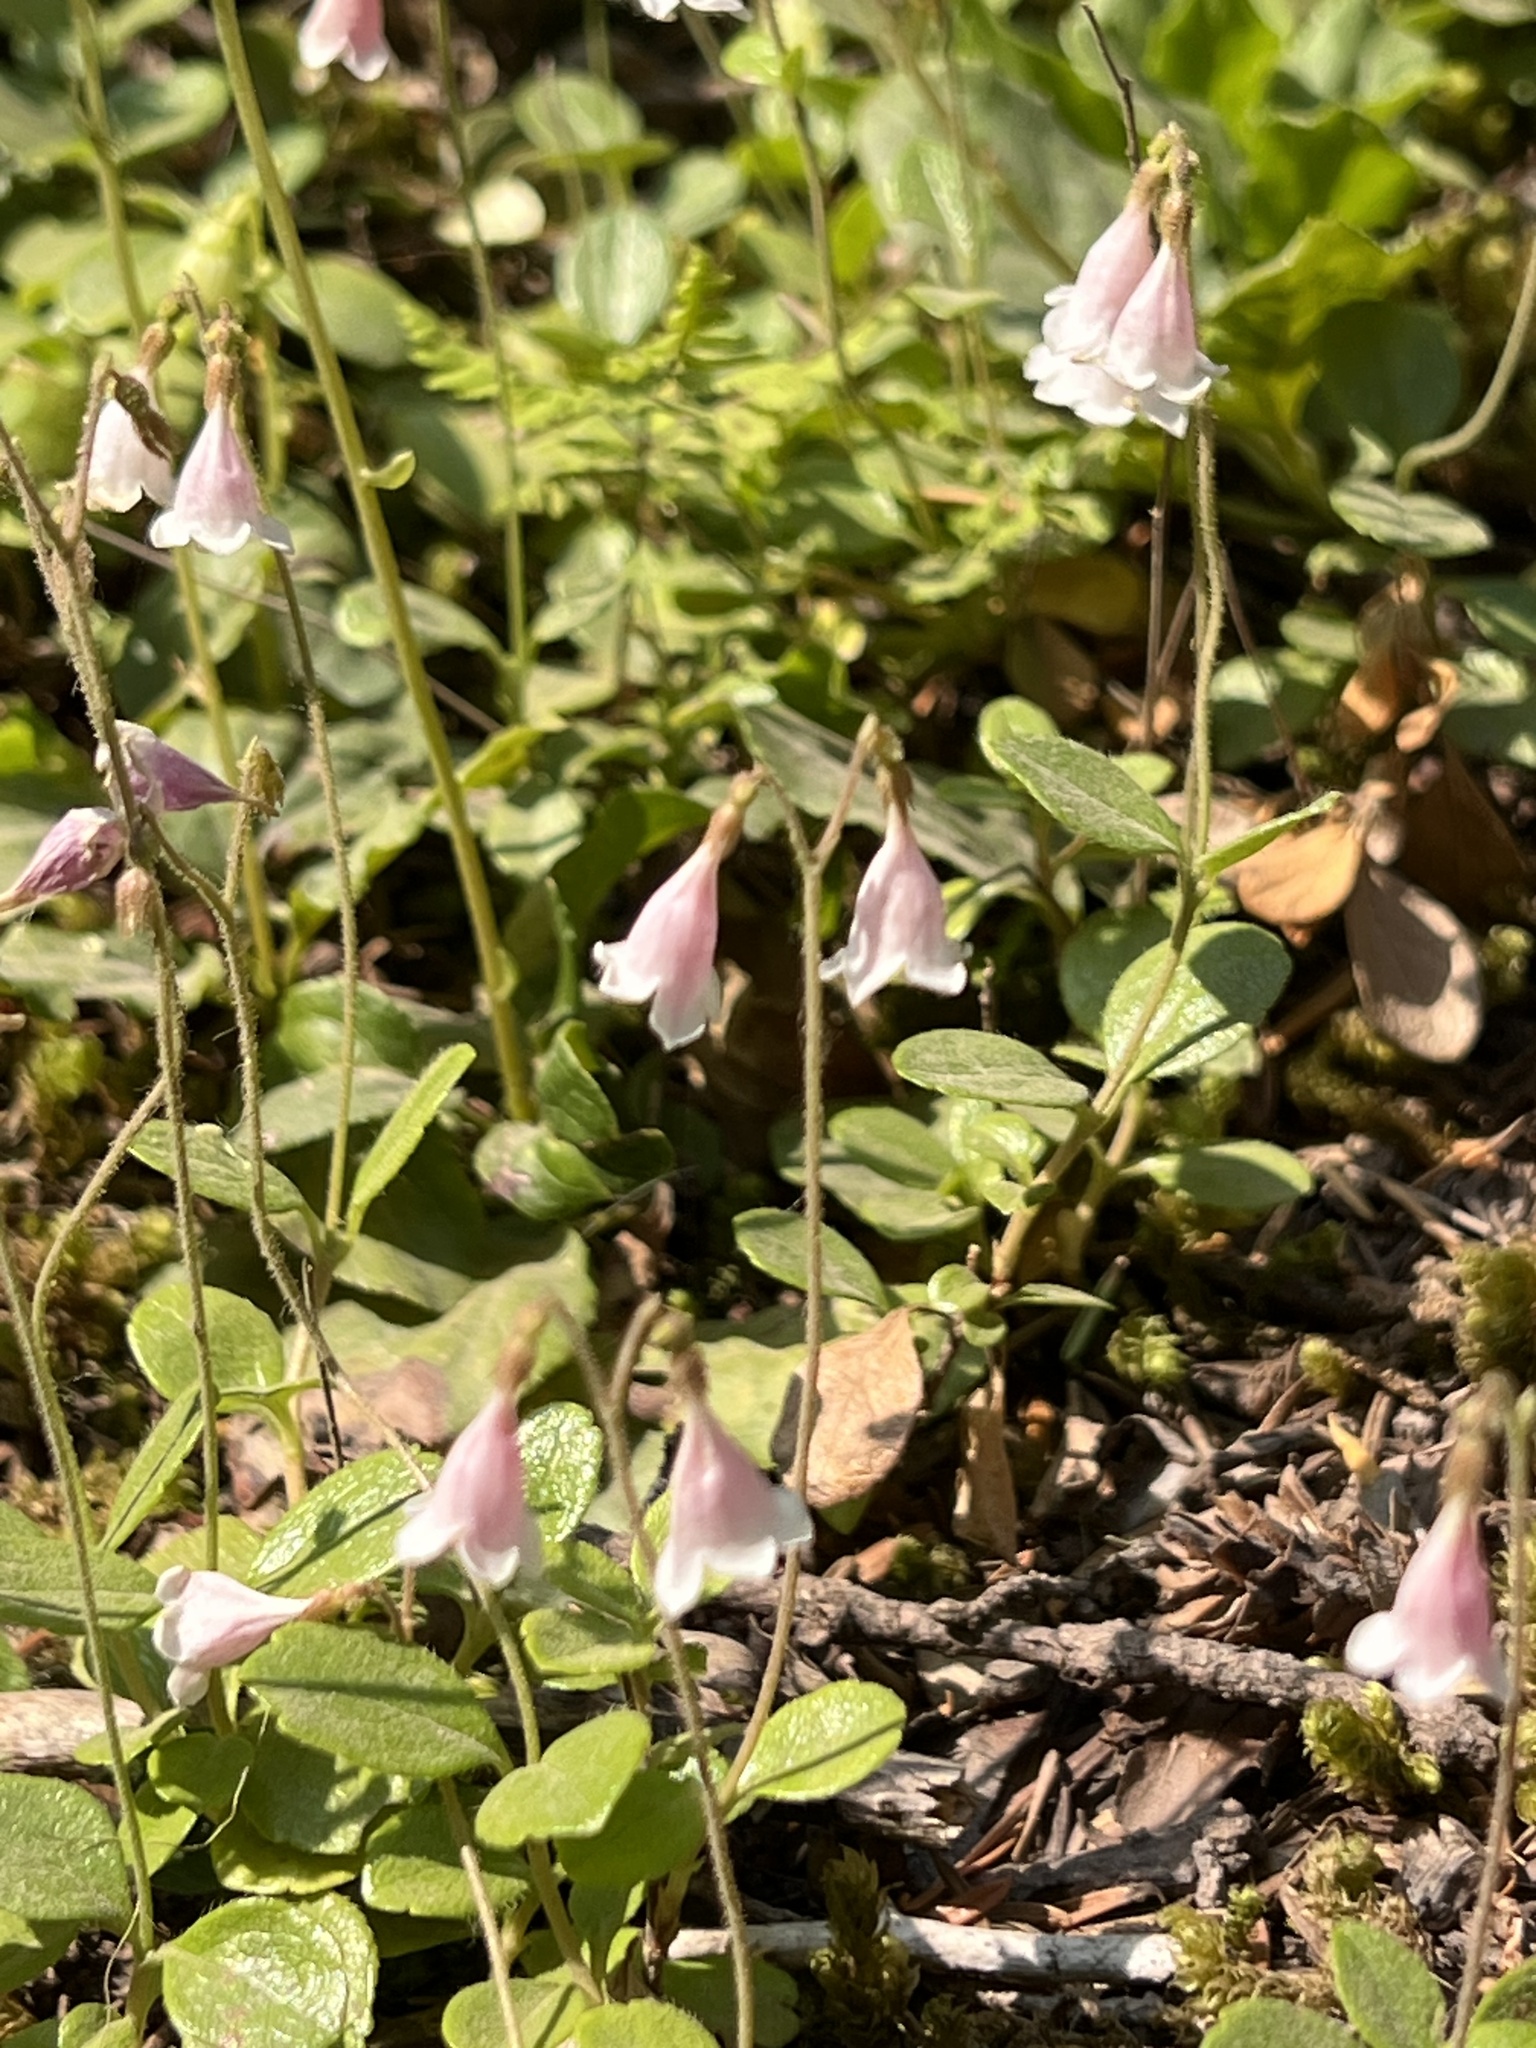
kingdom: Plantae
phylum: Tracheophyta
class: Magnoliopsida
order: Dipsacales
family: Caprifoliaceae
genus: Linnaea
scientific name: Linnaea borealis
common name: Twinflower
